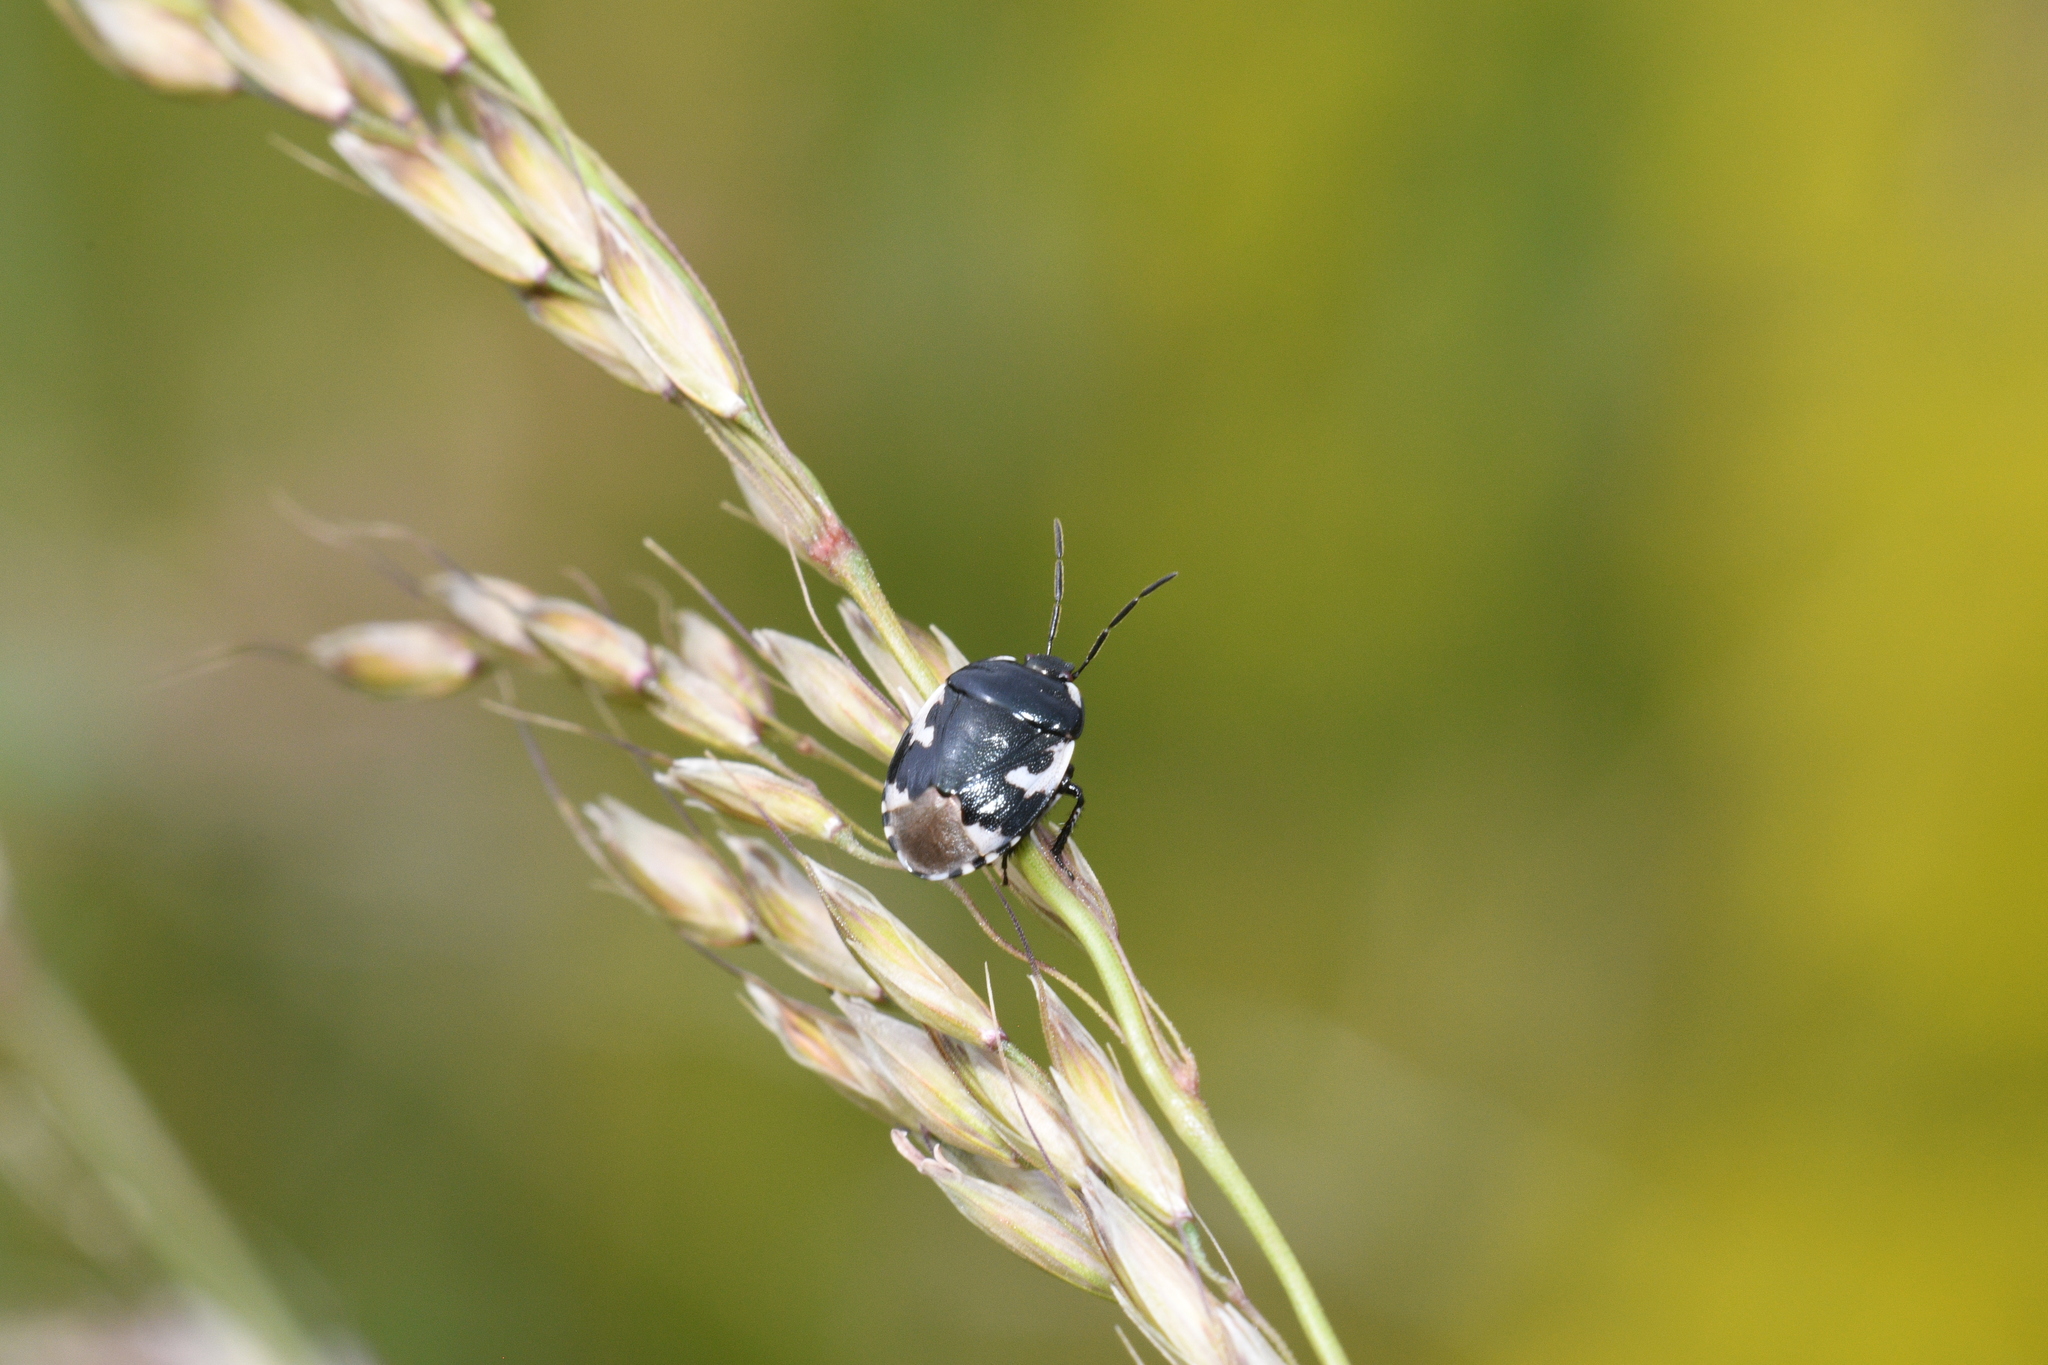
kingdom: Animalia
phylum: Arthropoda
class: Insecta
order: Hemiptera
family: Cydnidae
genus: Tritomegas
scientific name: Tritomegas bicolor
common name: Pied shieldbug
